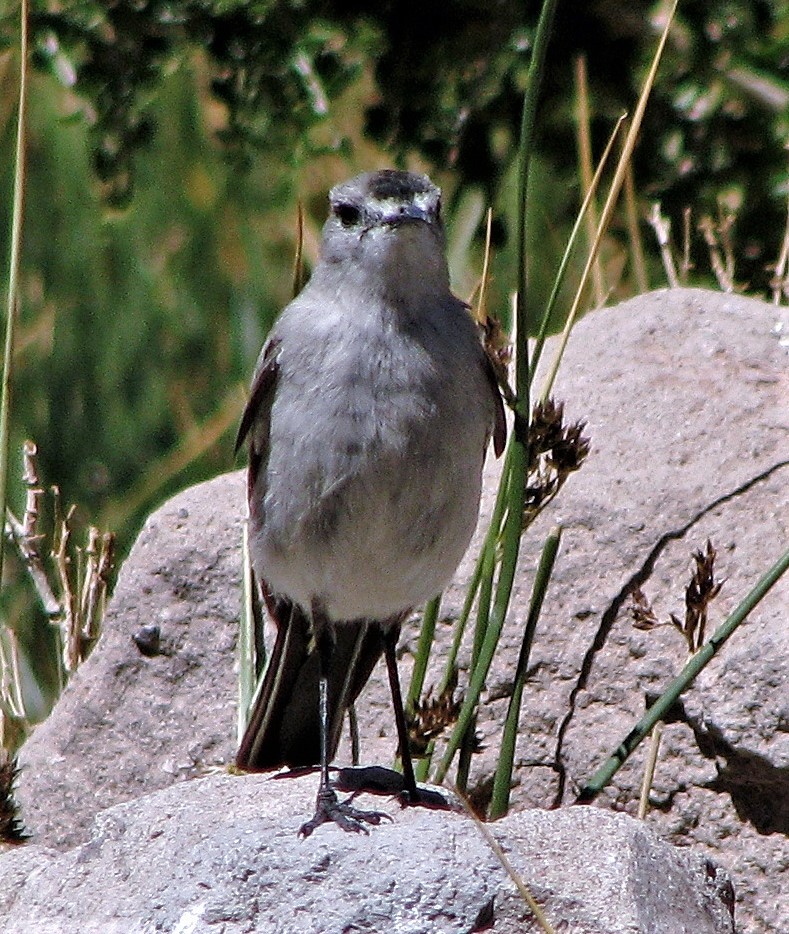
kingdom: Animalia
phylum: Chordata
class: Aves
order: Passeriformes
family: Tyrannidae
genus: Muscisaxicola
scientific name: Muscisaxicola frontalis
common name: Black-fronted ground tyrant
